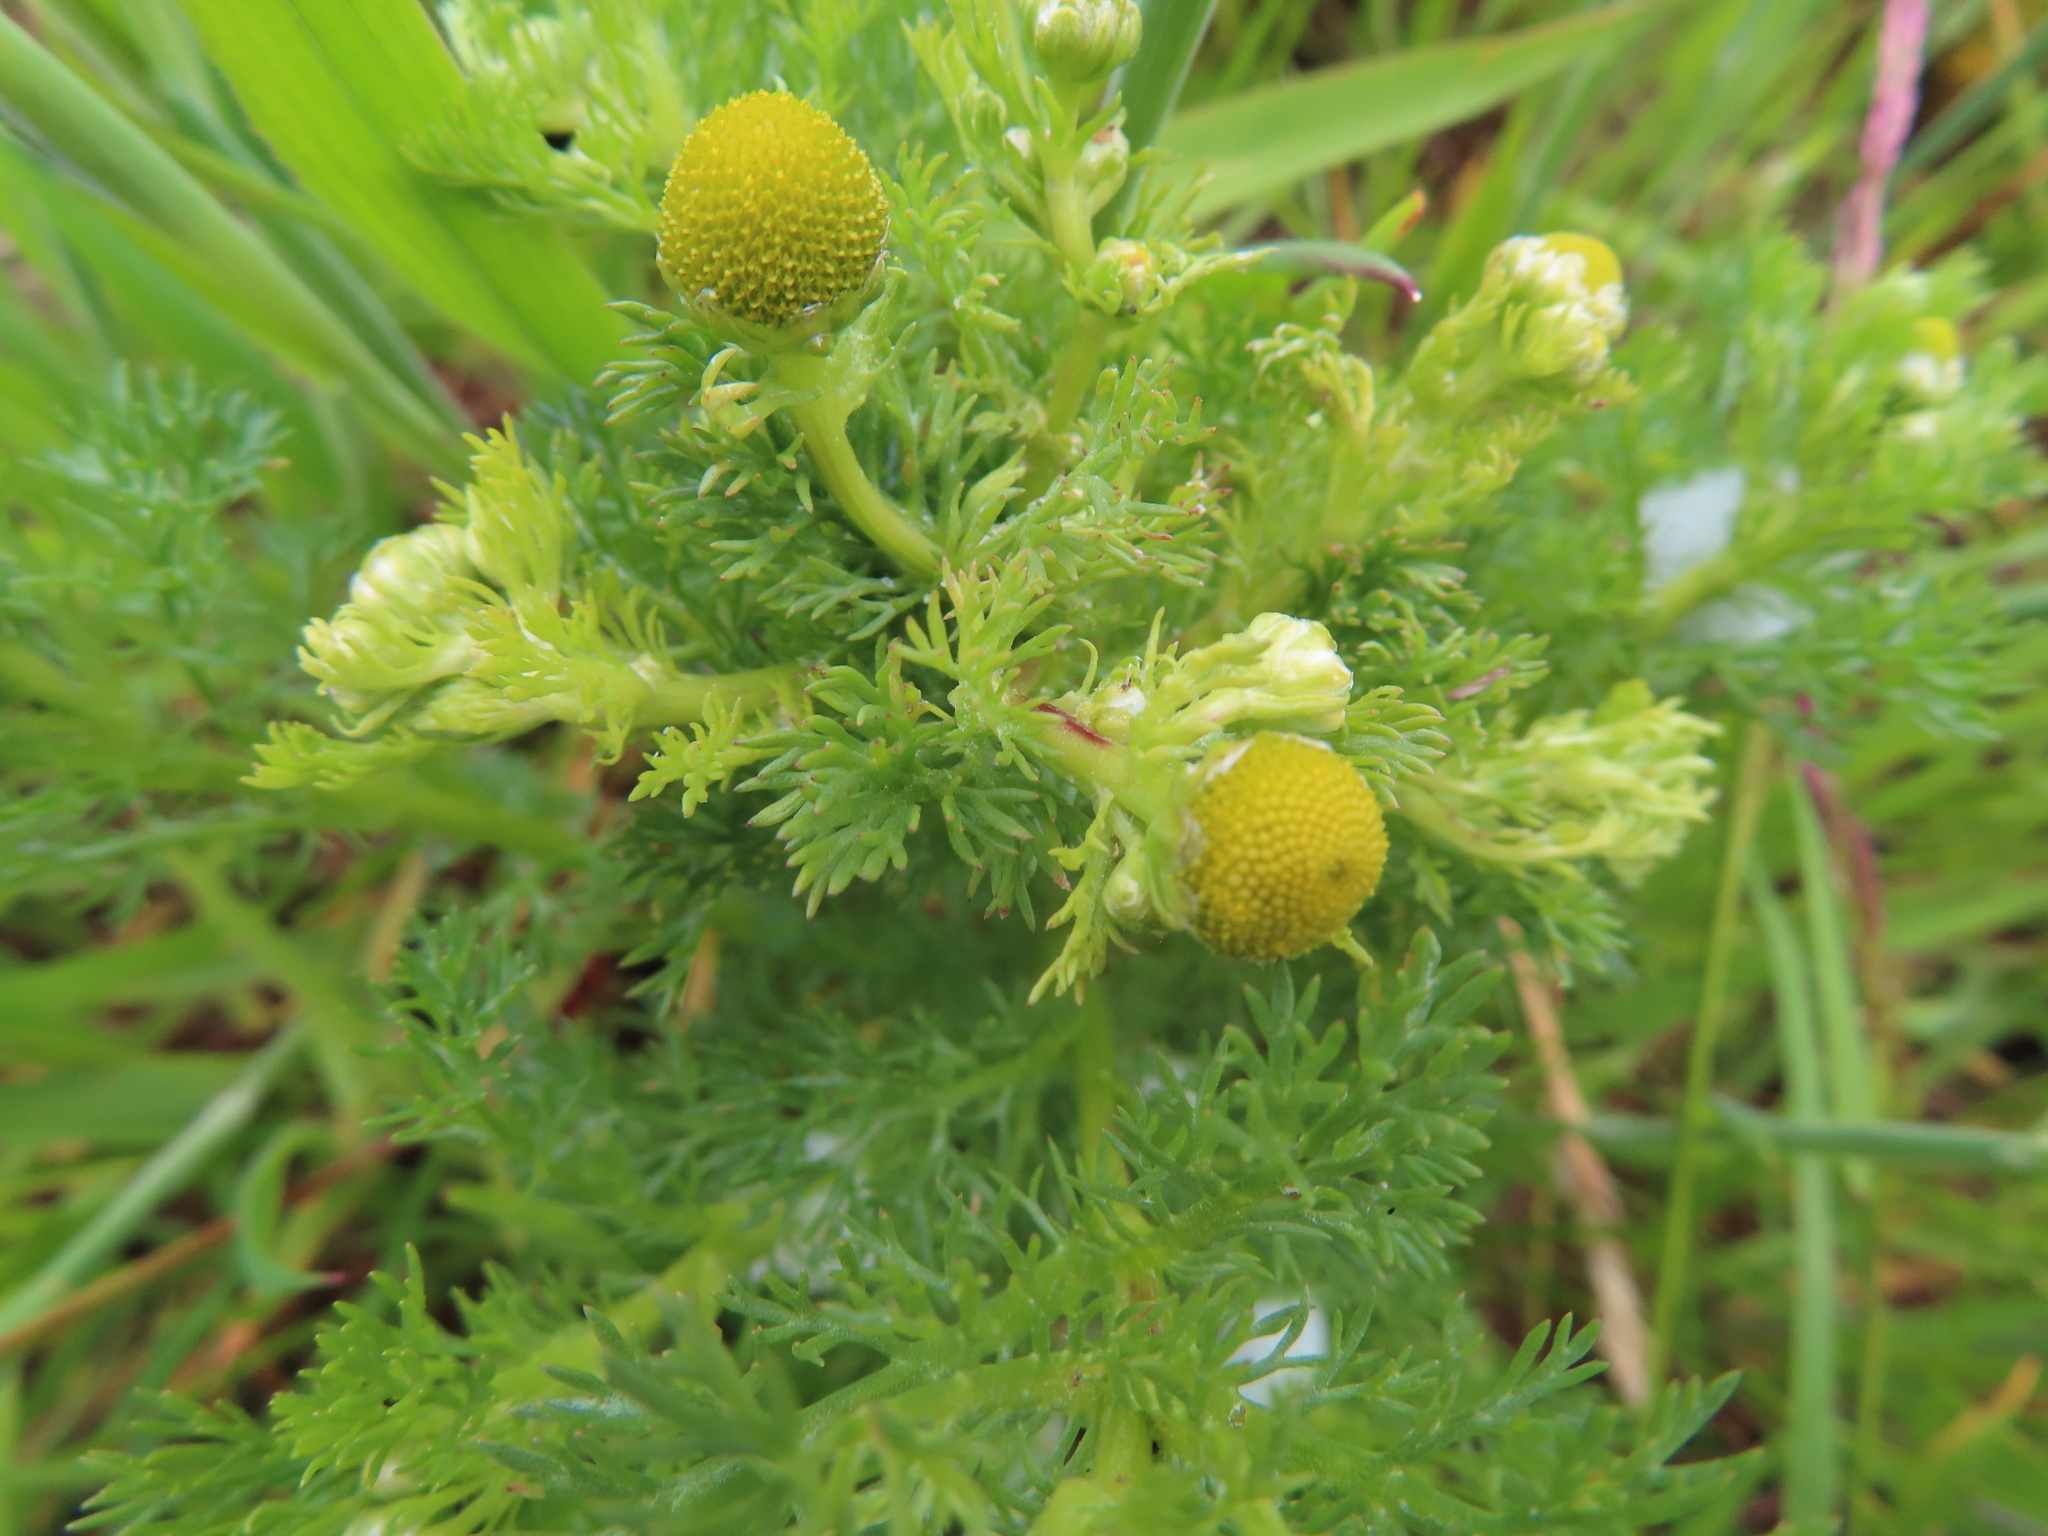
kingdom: Plantae
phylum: Tracheophyta
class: Magnoliopsida
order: Asterales
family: Asteraceae
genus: Matricaria
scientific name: Matricaria discoidea
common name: Disc mayweed
